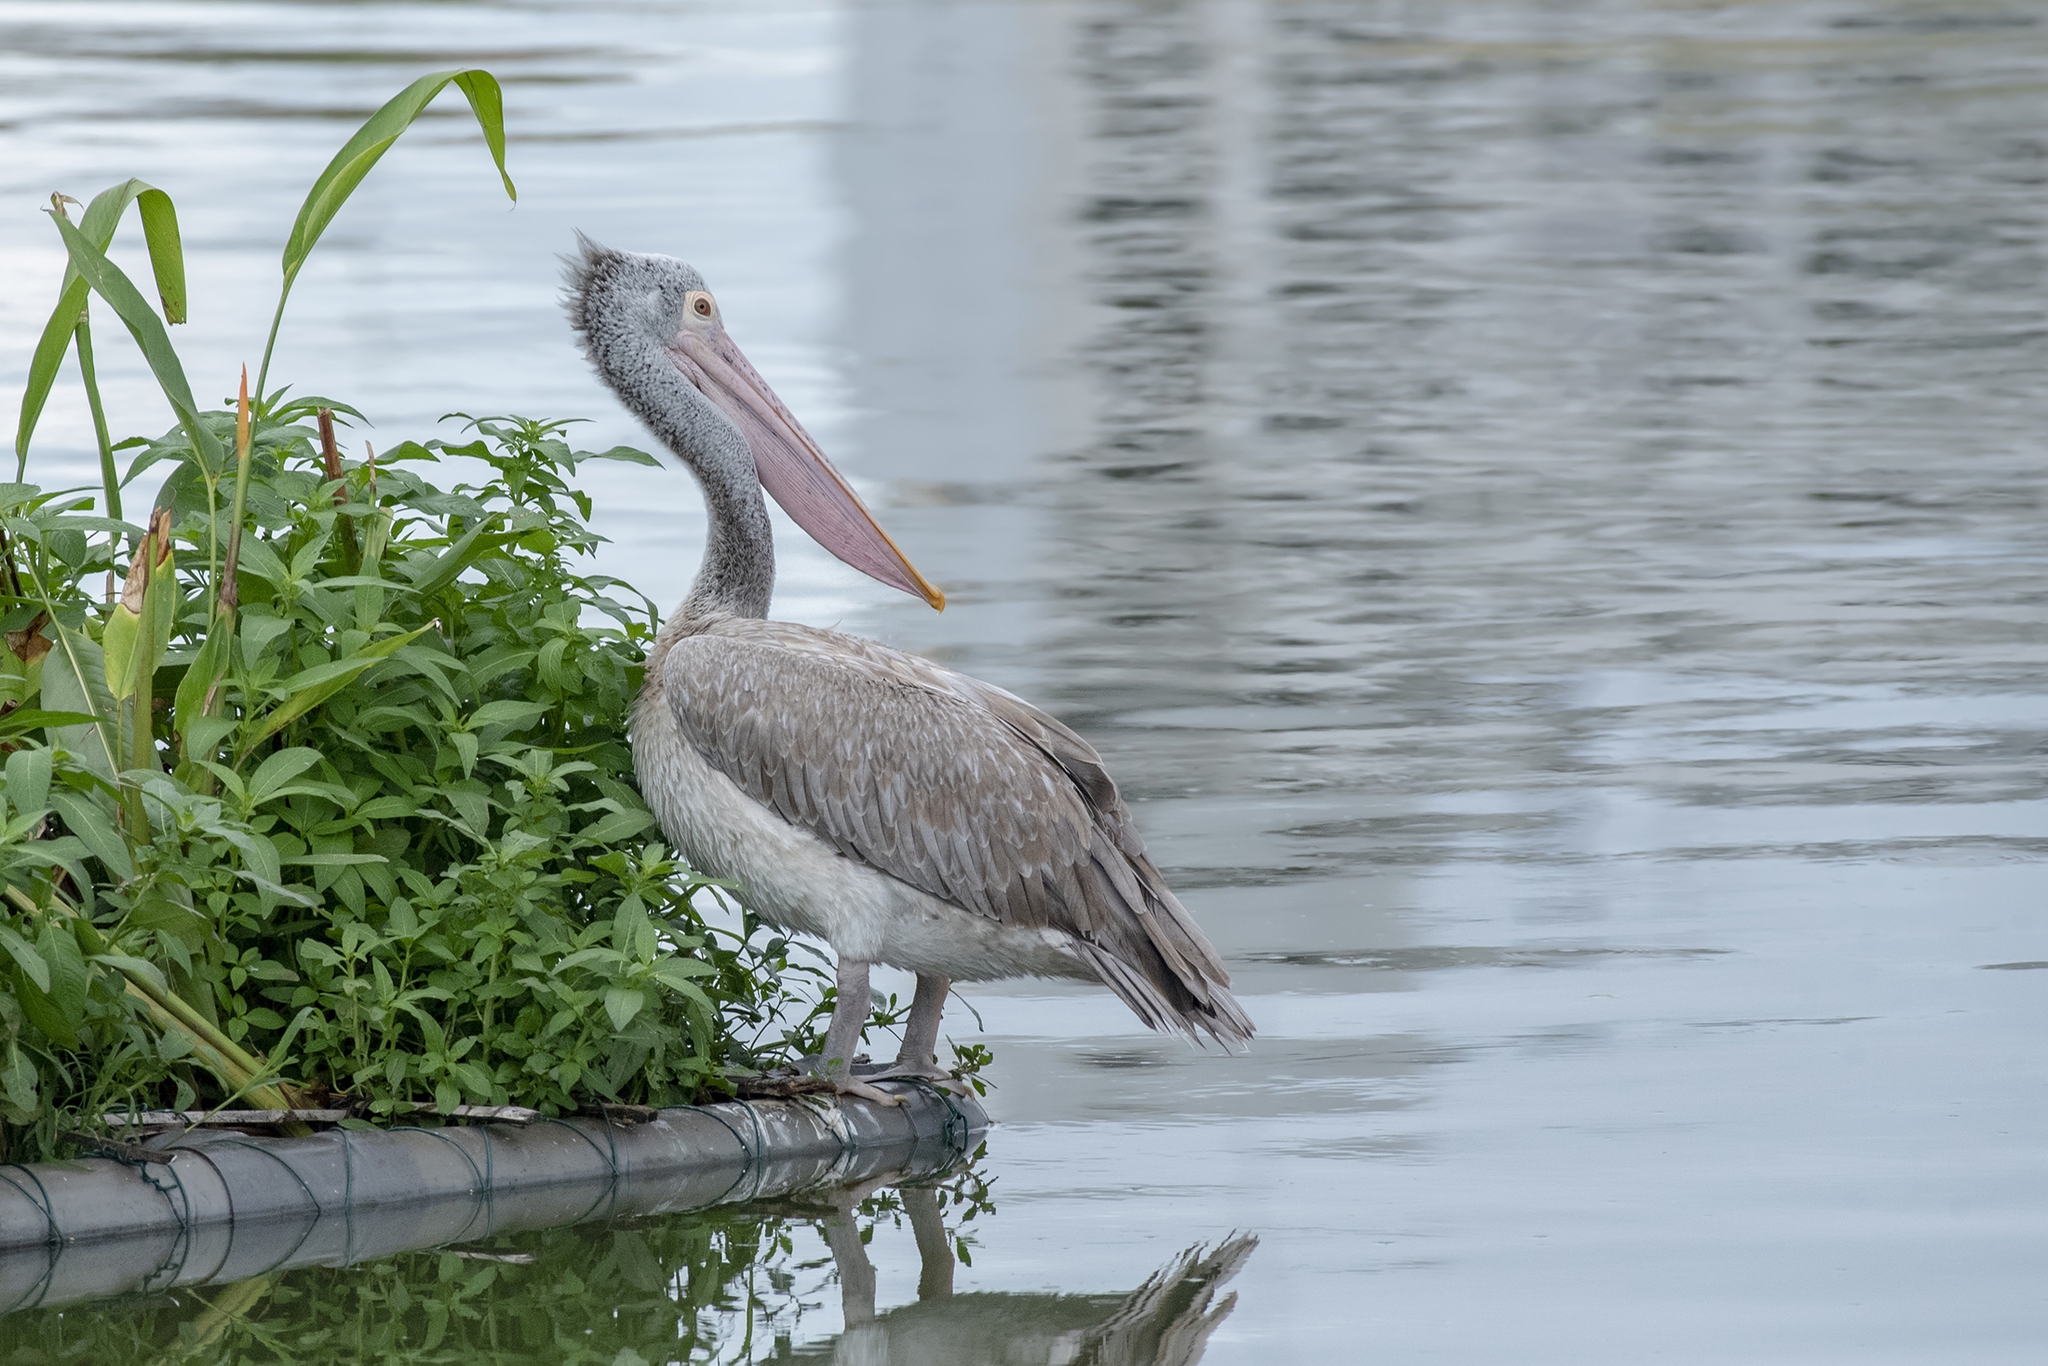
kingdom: Animalia
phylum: Chordata
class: Aves
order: Pelecaniformes
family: Pelecanidae
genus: Pelecanus
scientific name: Pelecanus philippensis
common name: Spot-billed pelican
